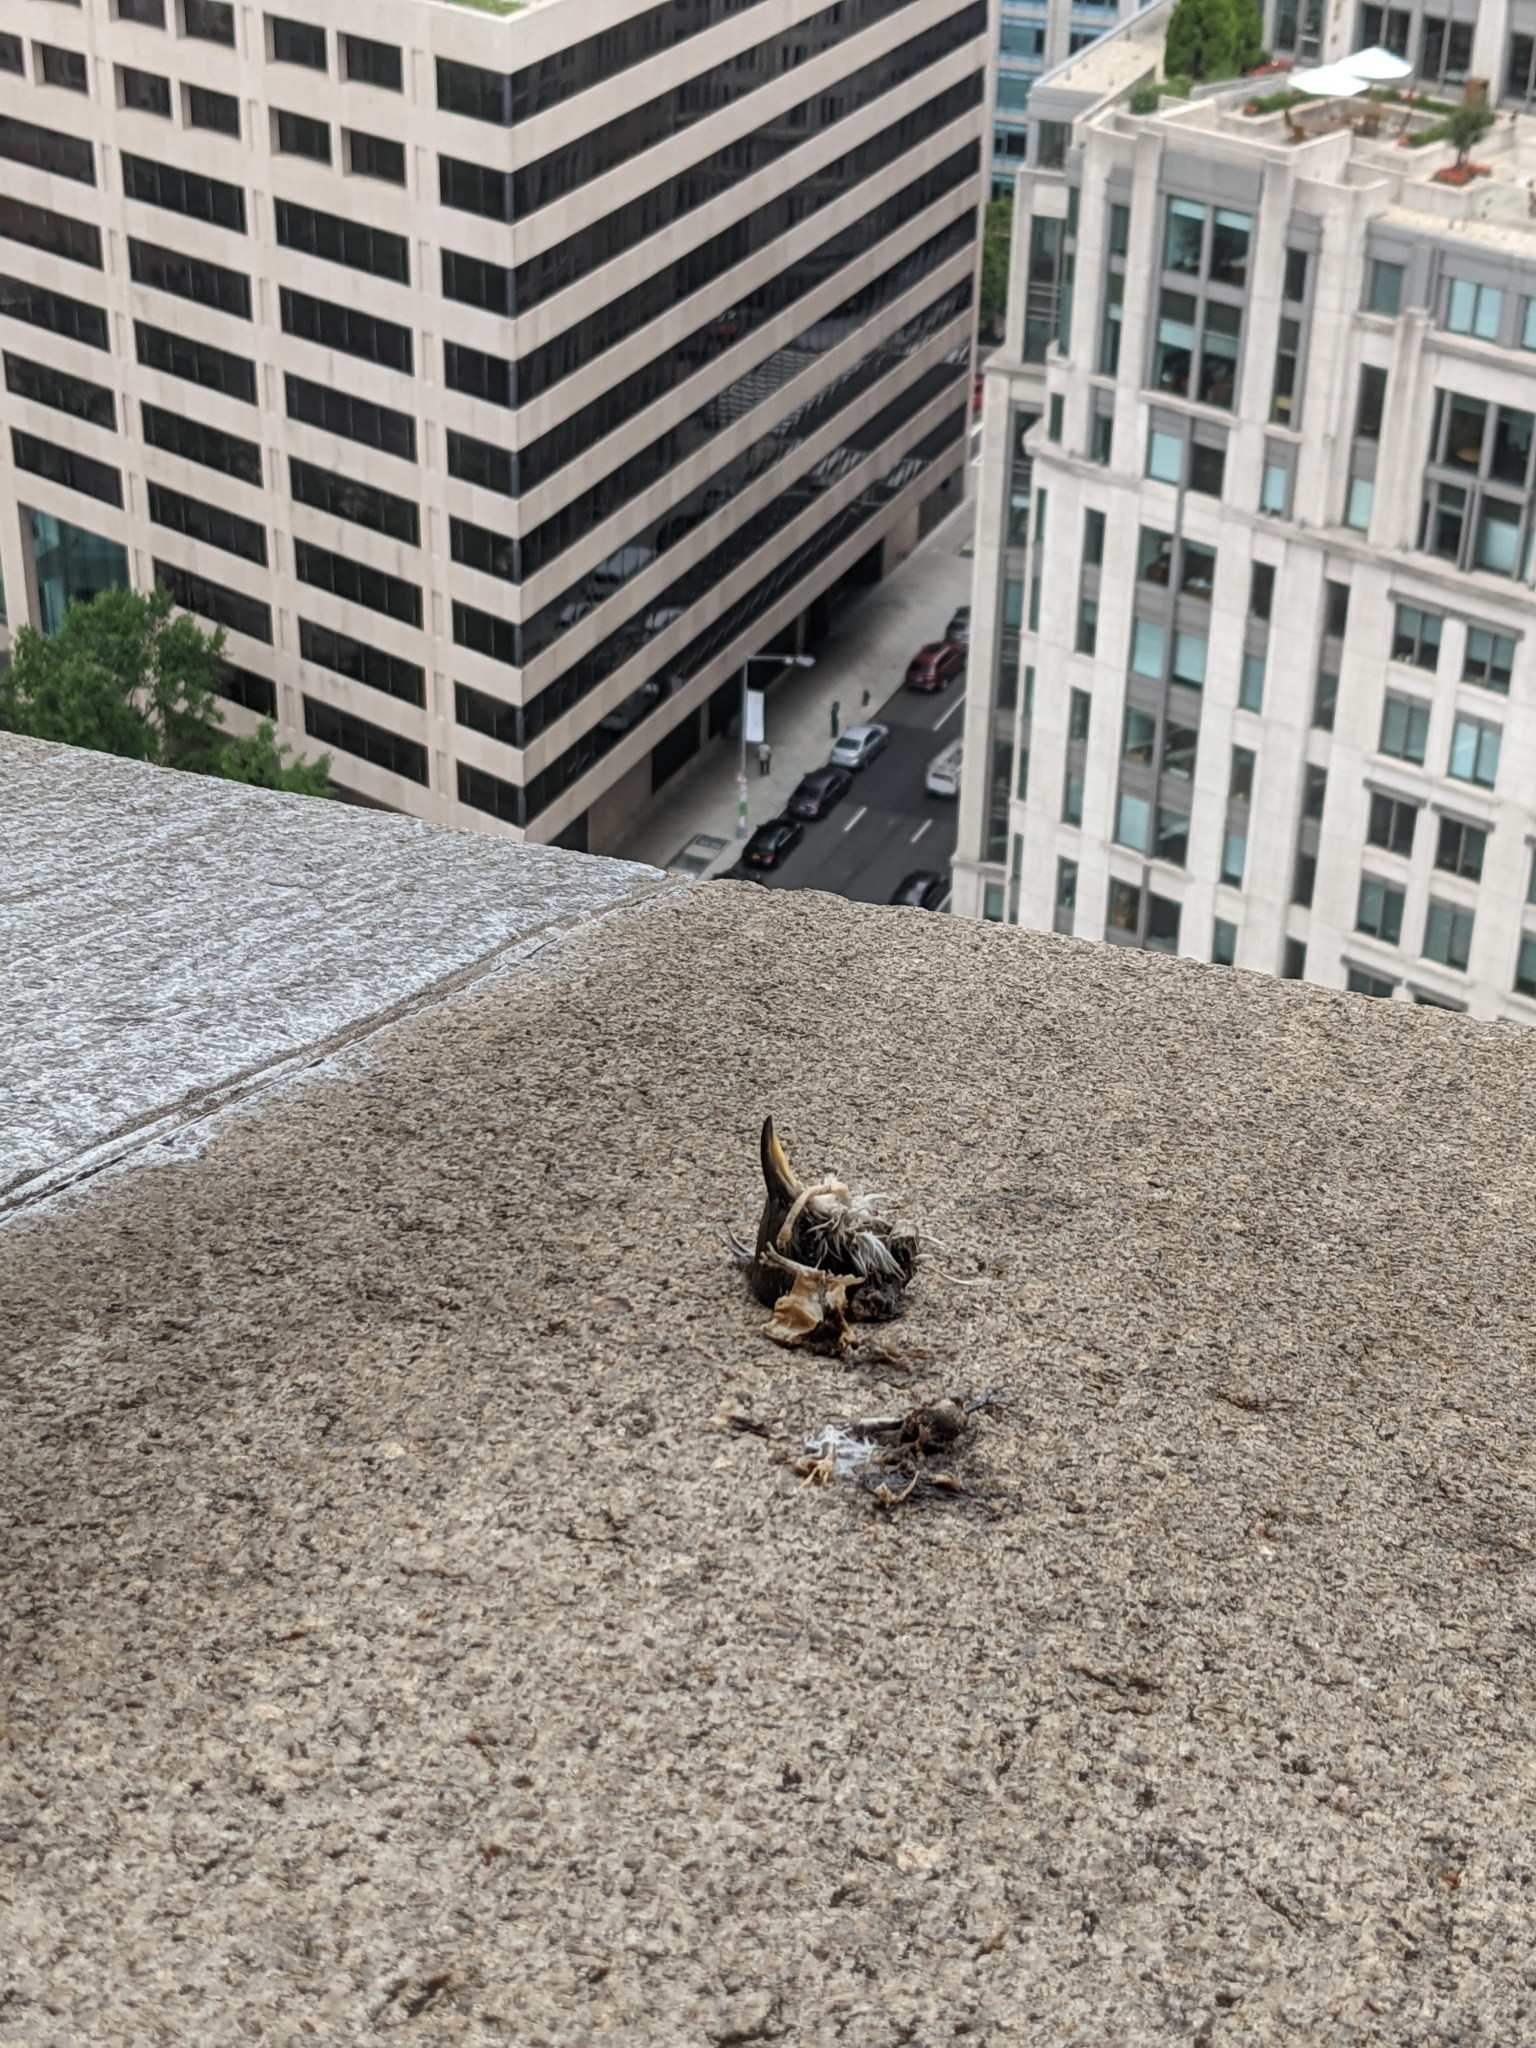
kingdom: Animalia
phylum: Chordata
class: Aves
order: Cuculiformes
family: Cuculidae
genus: Coccyzus
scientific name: Coccyzus americanus
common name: Yellow-billed cuckoo
